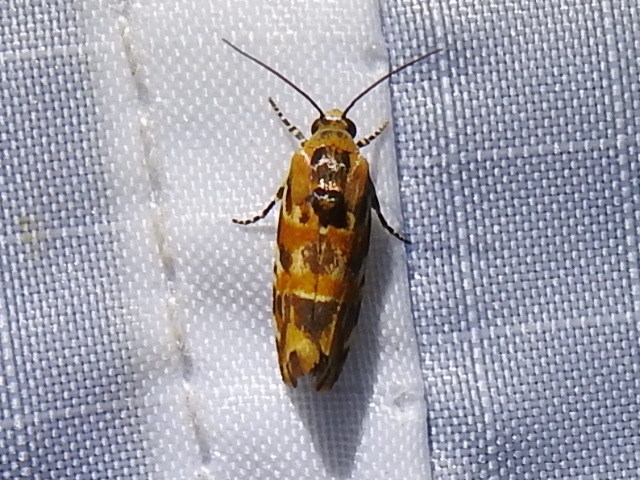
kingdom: Animalia
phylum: Arthropoda
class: Insecta
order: Lepidoptera
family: Noctuidae
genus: Spragueia
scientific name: Spragueia jaguaralis
